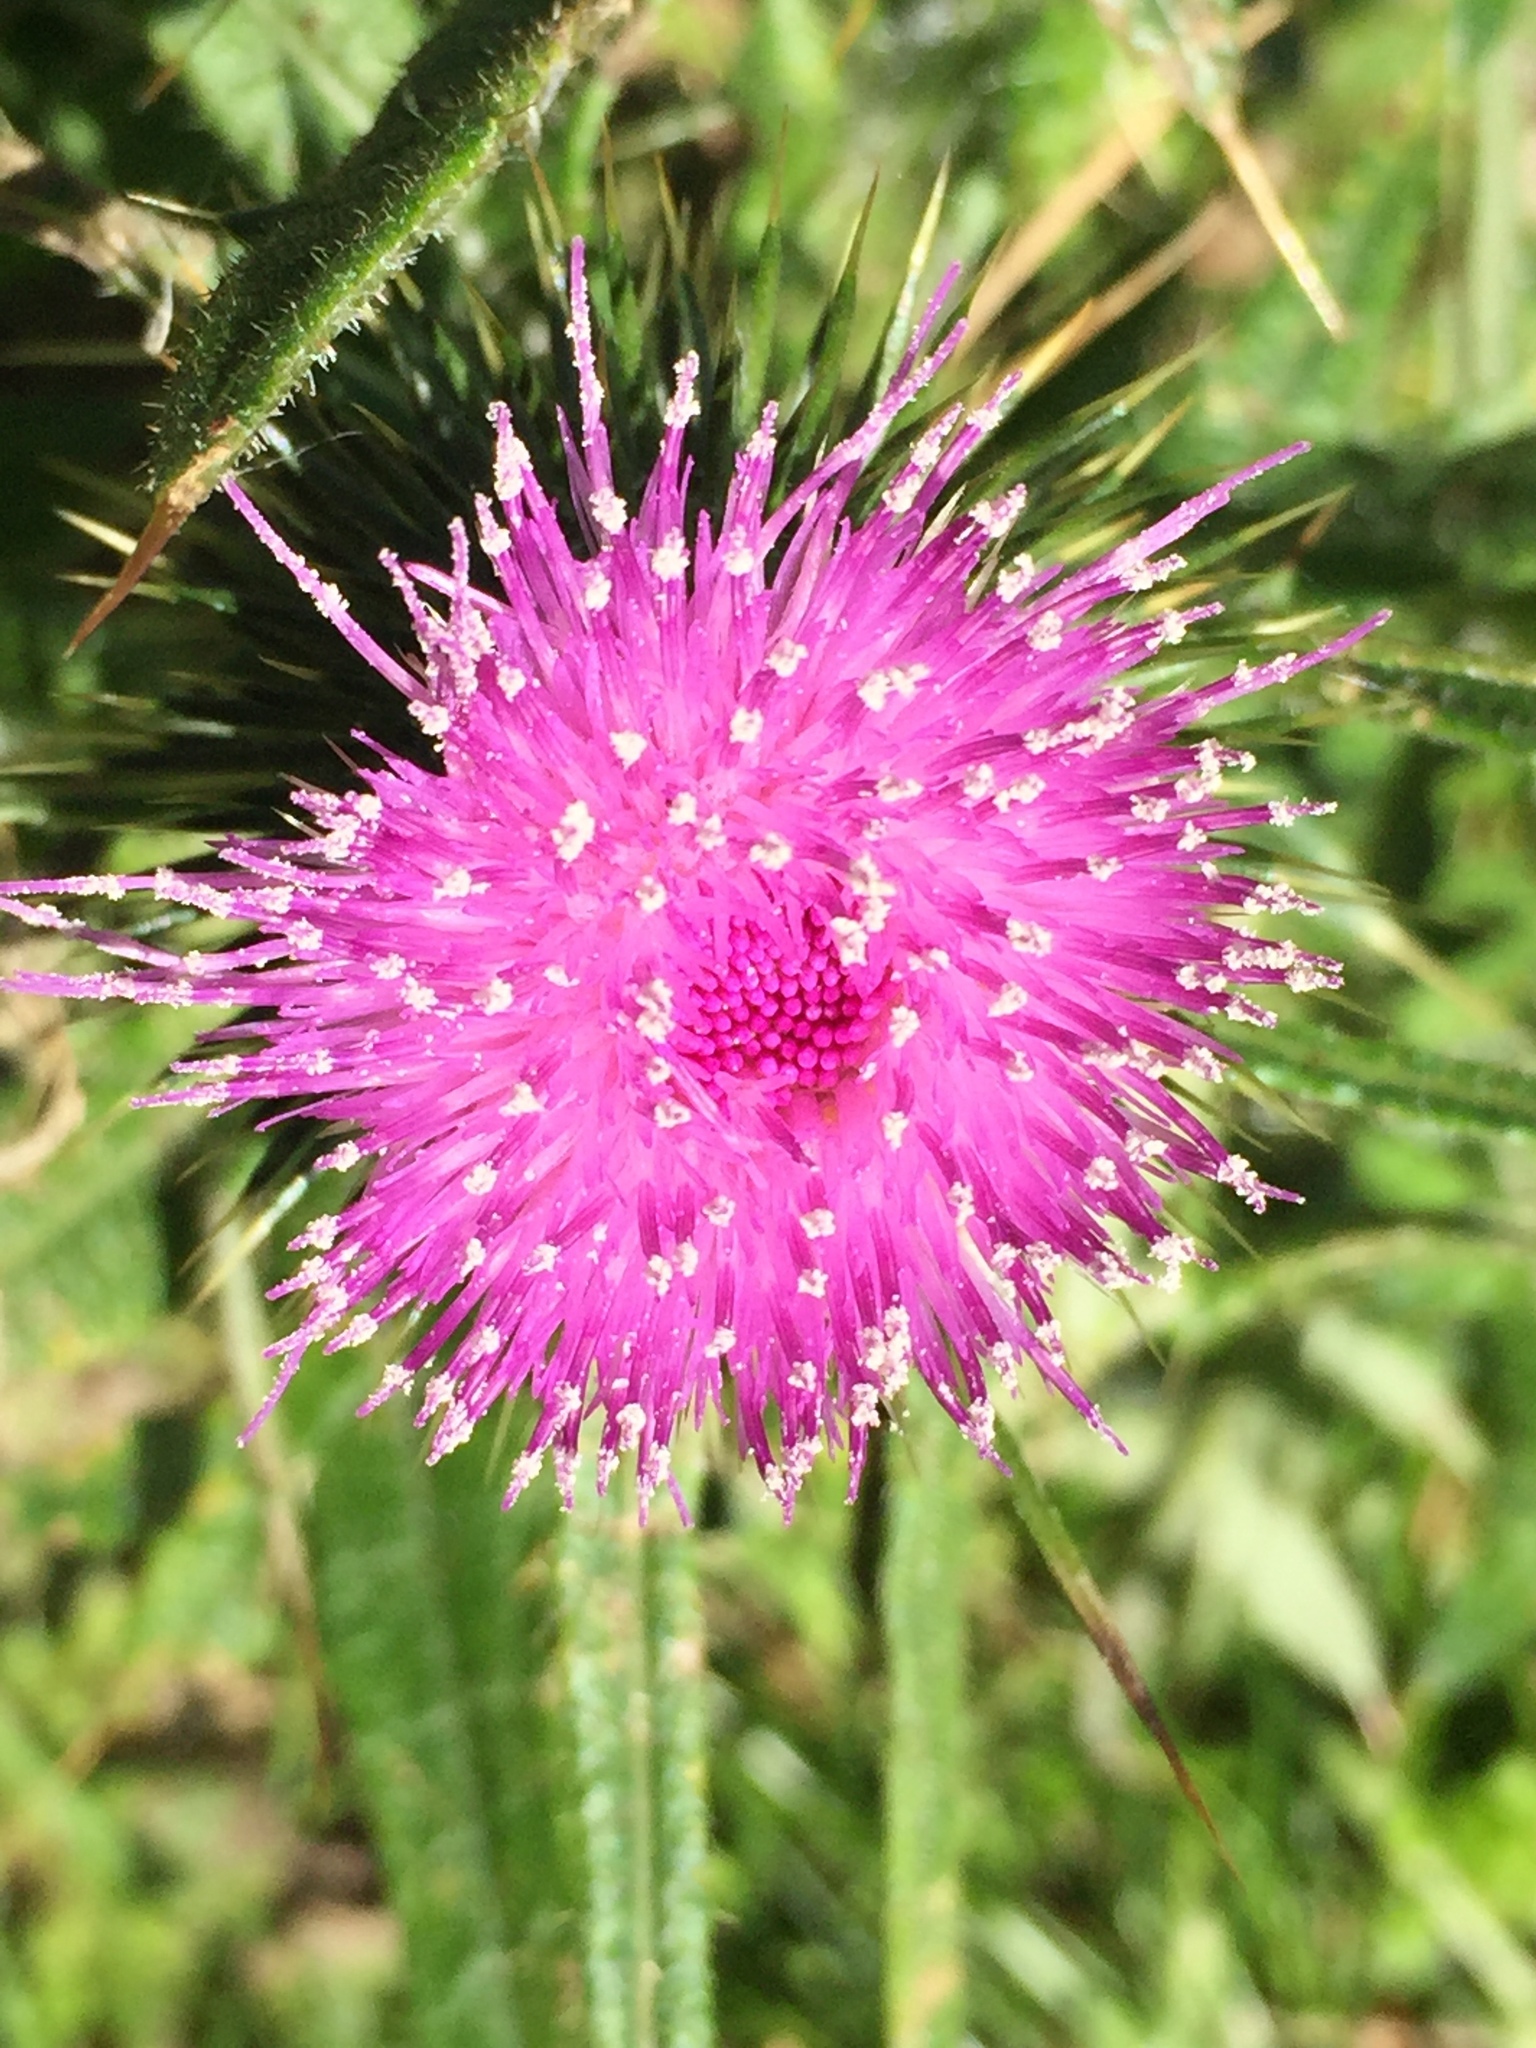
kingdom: Plantae
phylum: Tracheophyta
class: Magnoliopsida
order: Asterales
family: Asteraceae
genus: Cirsium
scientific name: Cirsium vulgare
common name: Bull thistle
